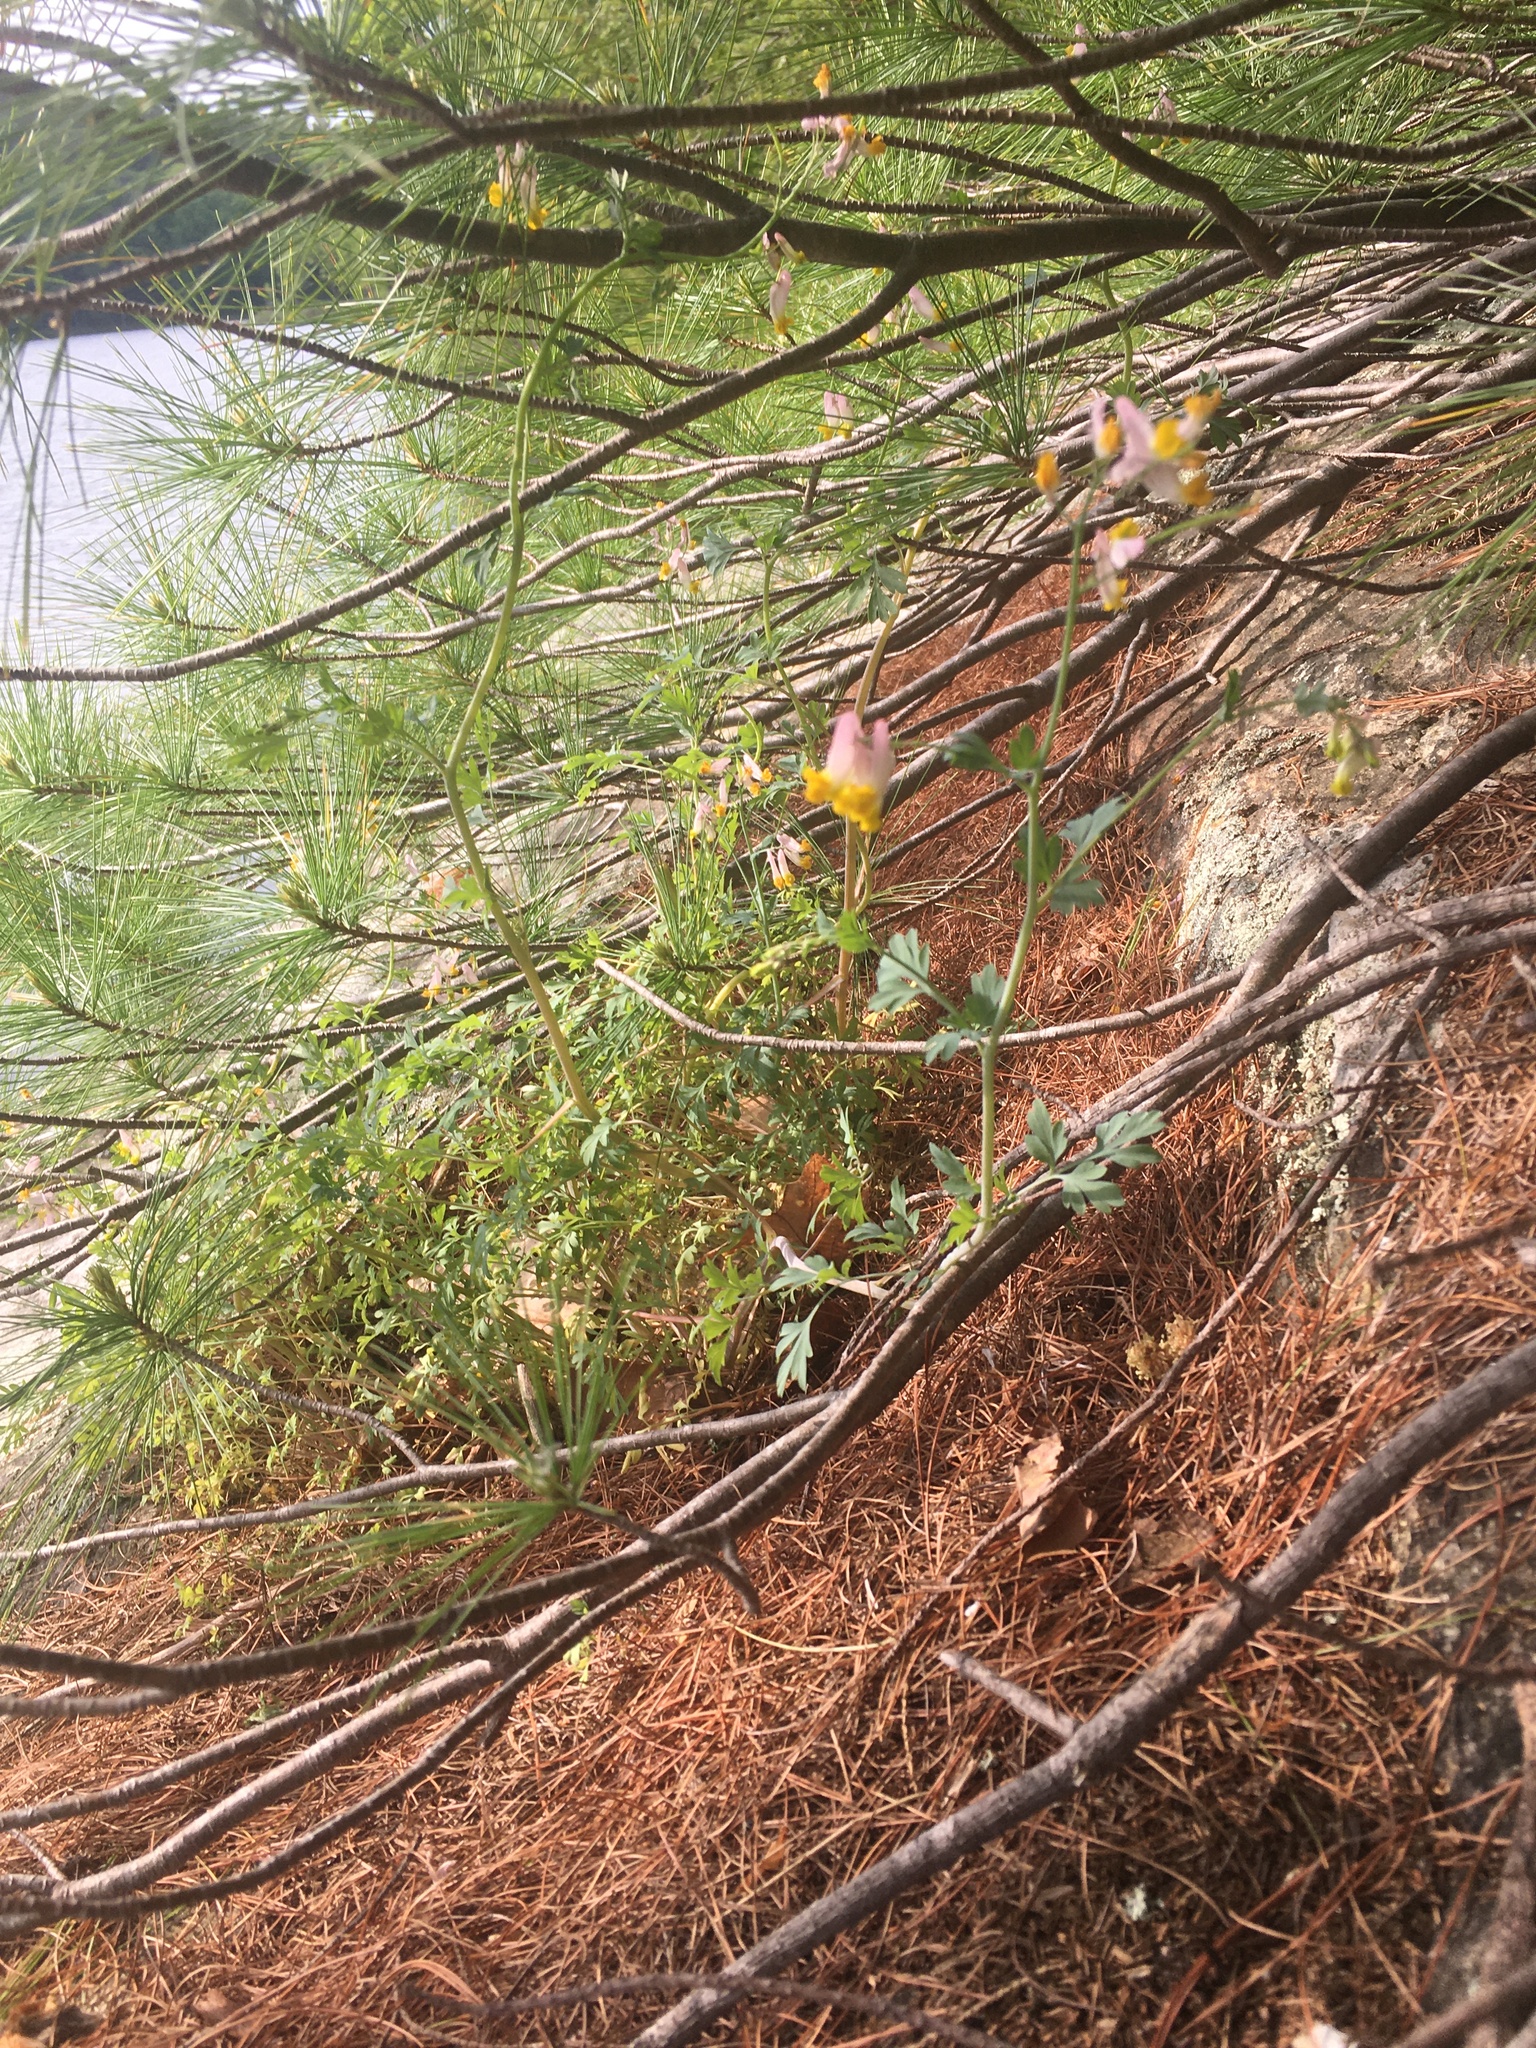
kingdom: Plantae
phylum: Tracheophyta
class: Magnoliopsida
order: Ranunculales
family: Papaveraceae
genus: Capnoides
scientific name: Capnoides sempervirens
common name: Rock harlequin
